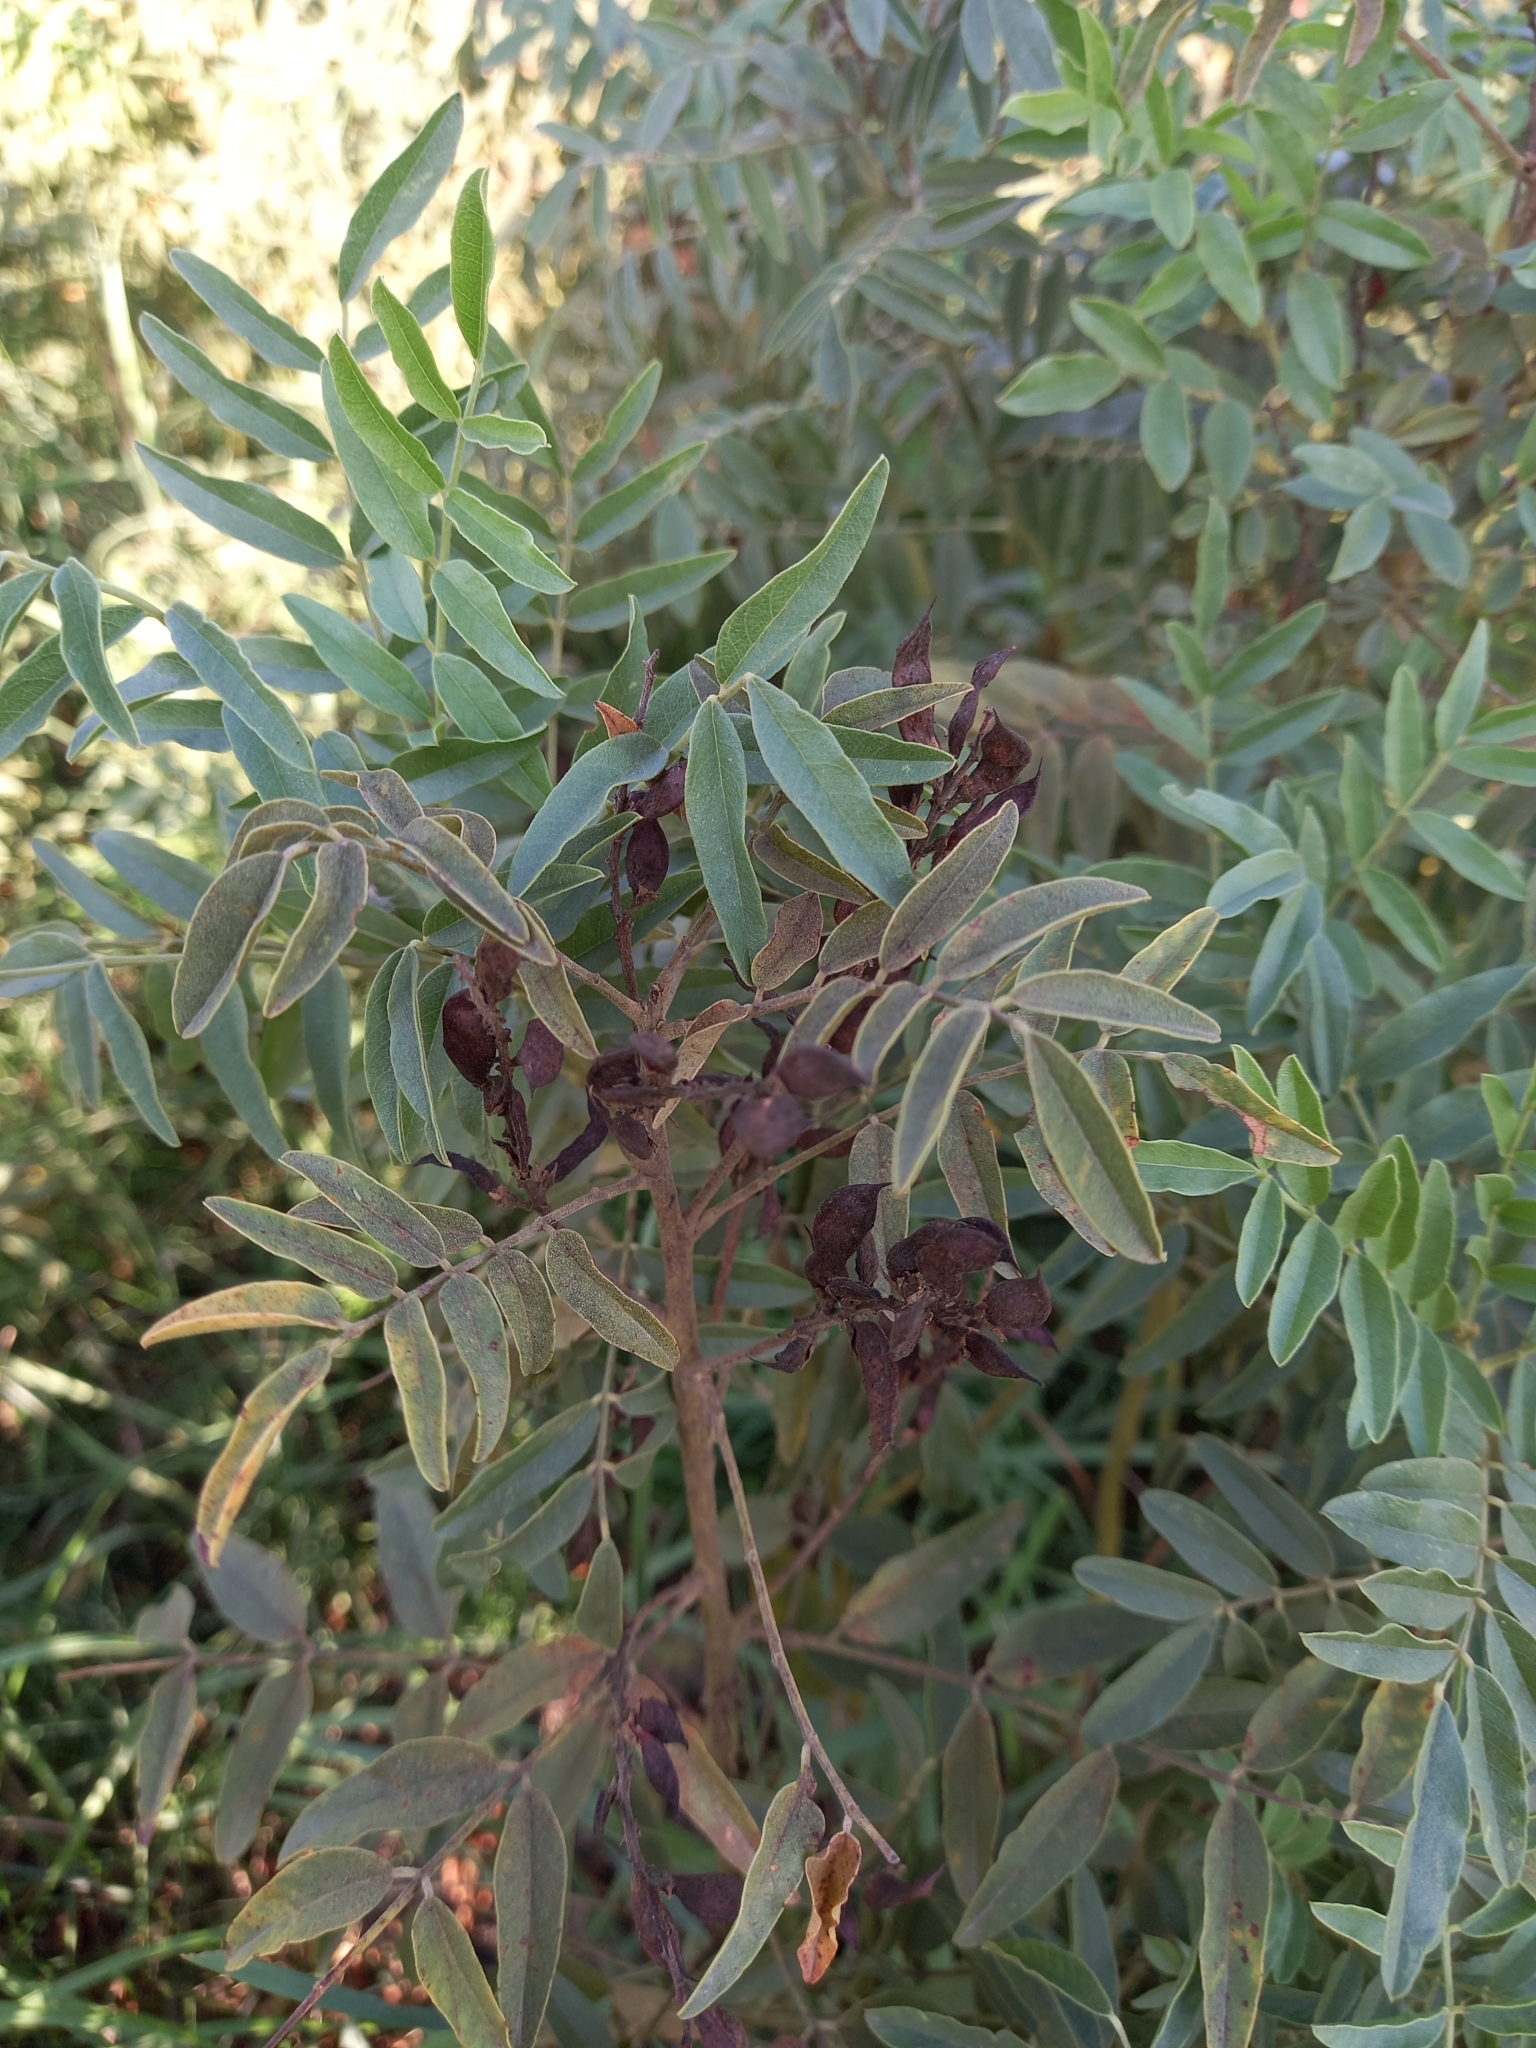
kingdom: Plantae
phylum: Tracheophyta
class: Magnoliopsida
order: Fabales
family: Fabaceae
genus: Glycyrrhiza
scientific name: Glycyrrhiza glabra
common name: Liquorice
